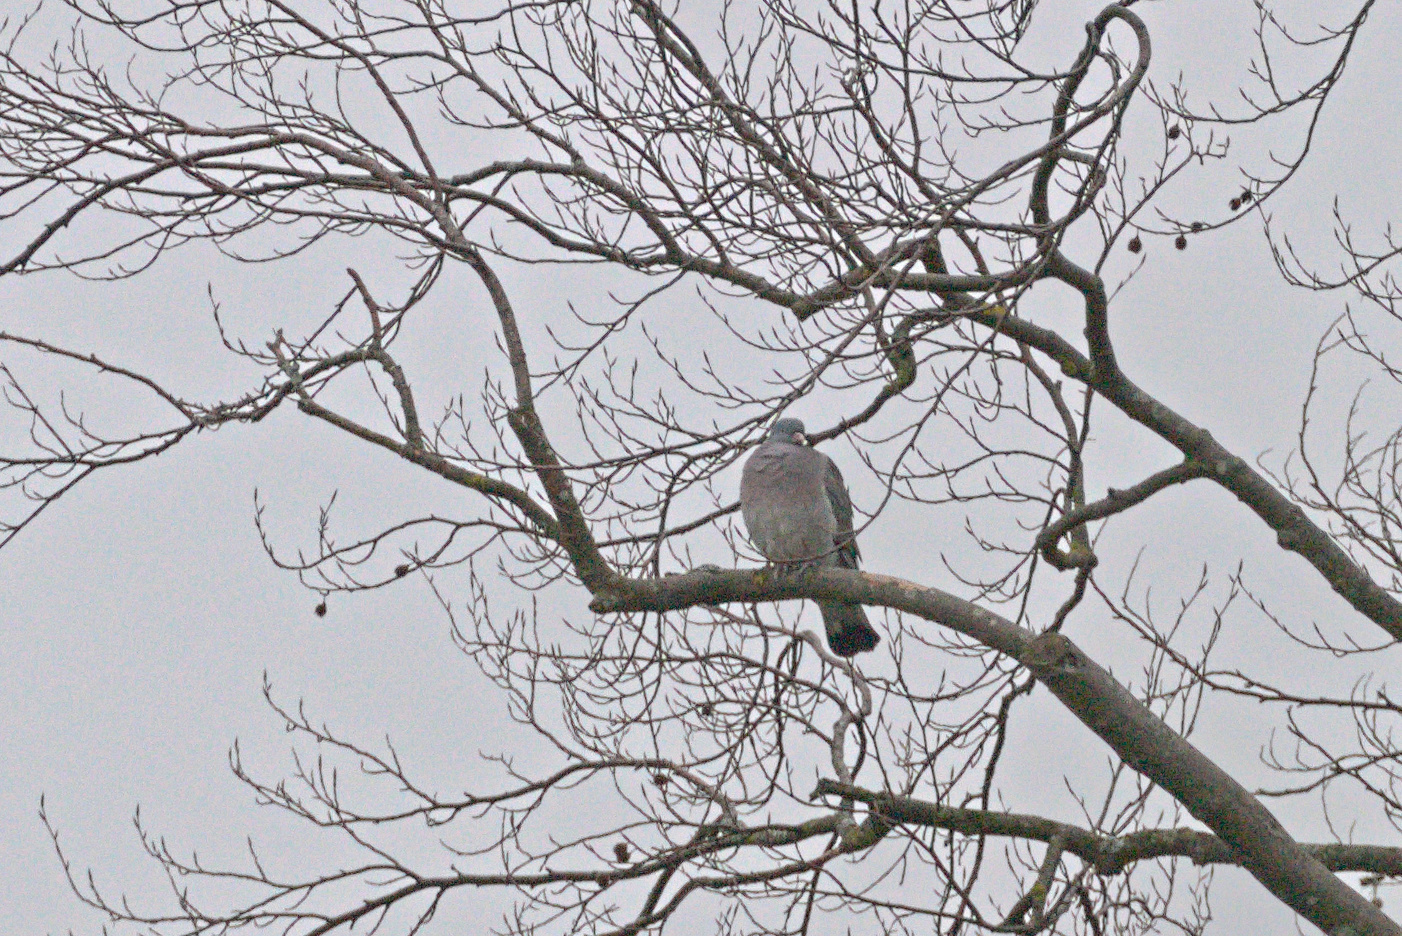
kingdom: Animalia
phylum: Chordata
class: Aves
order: Columbiformes
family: Columbidae
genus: Columba
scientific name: Columba palumbus
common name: Common wood pigeon
